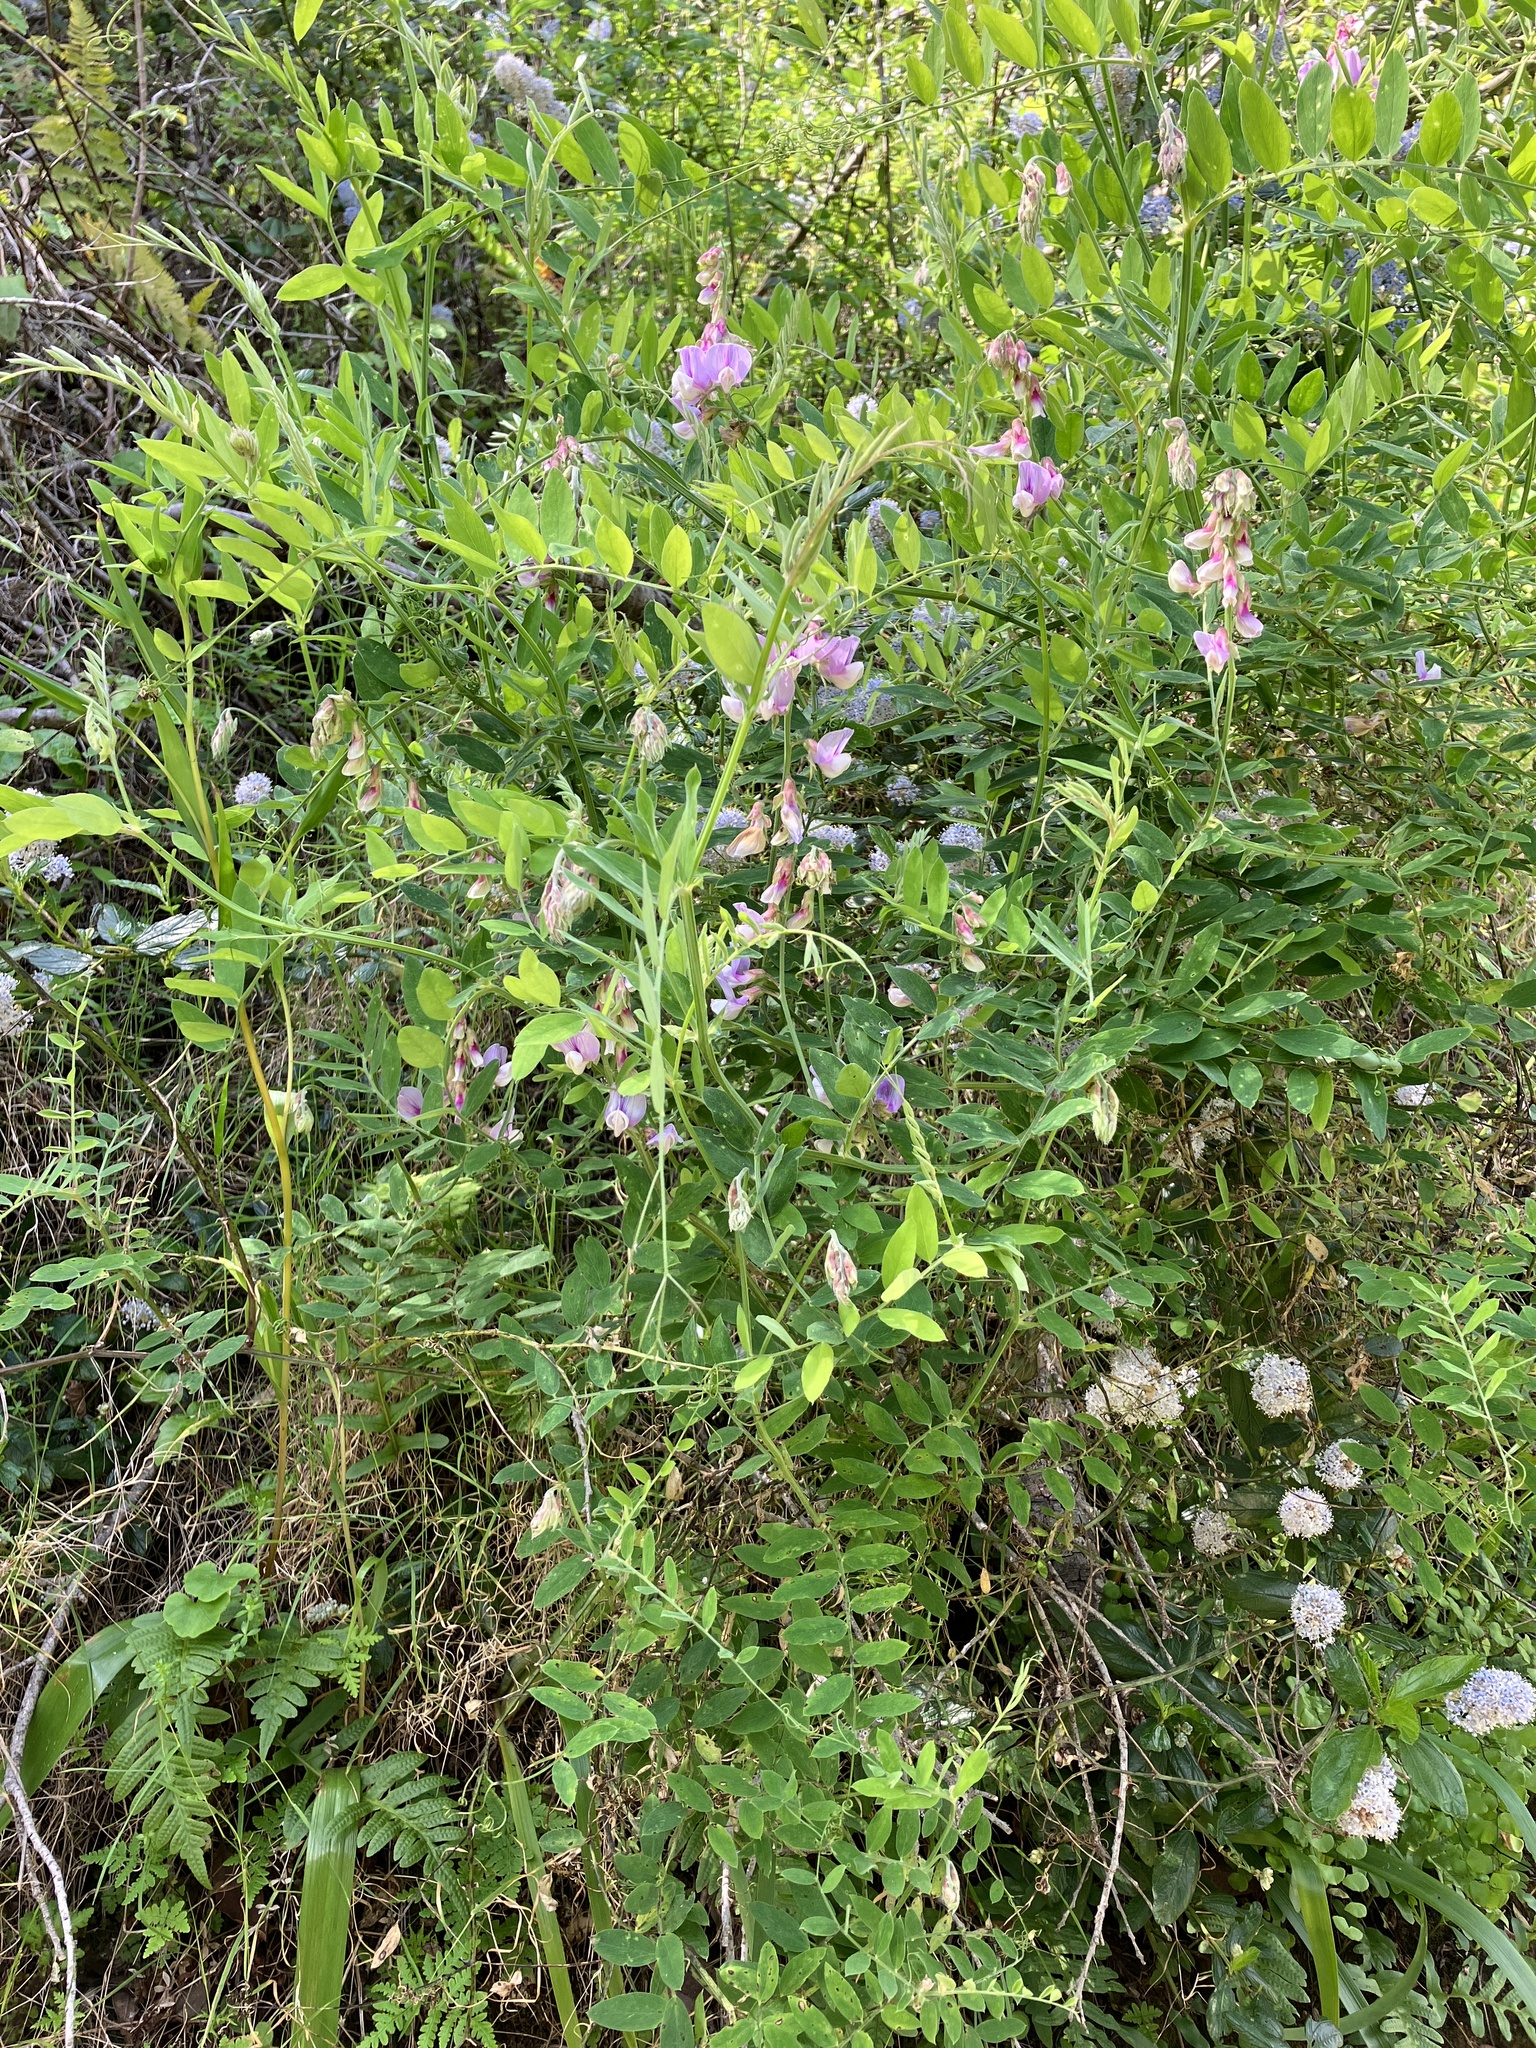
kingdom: Plantae
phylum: Tracheophyta
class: Magnoliopsida
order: Fabales
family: Fabaceae
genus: Lathyrus
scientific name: Lathyrus vestitus
